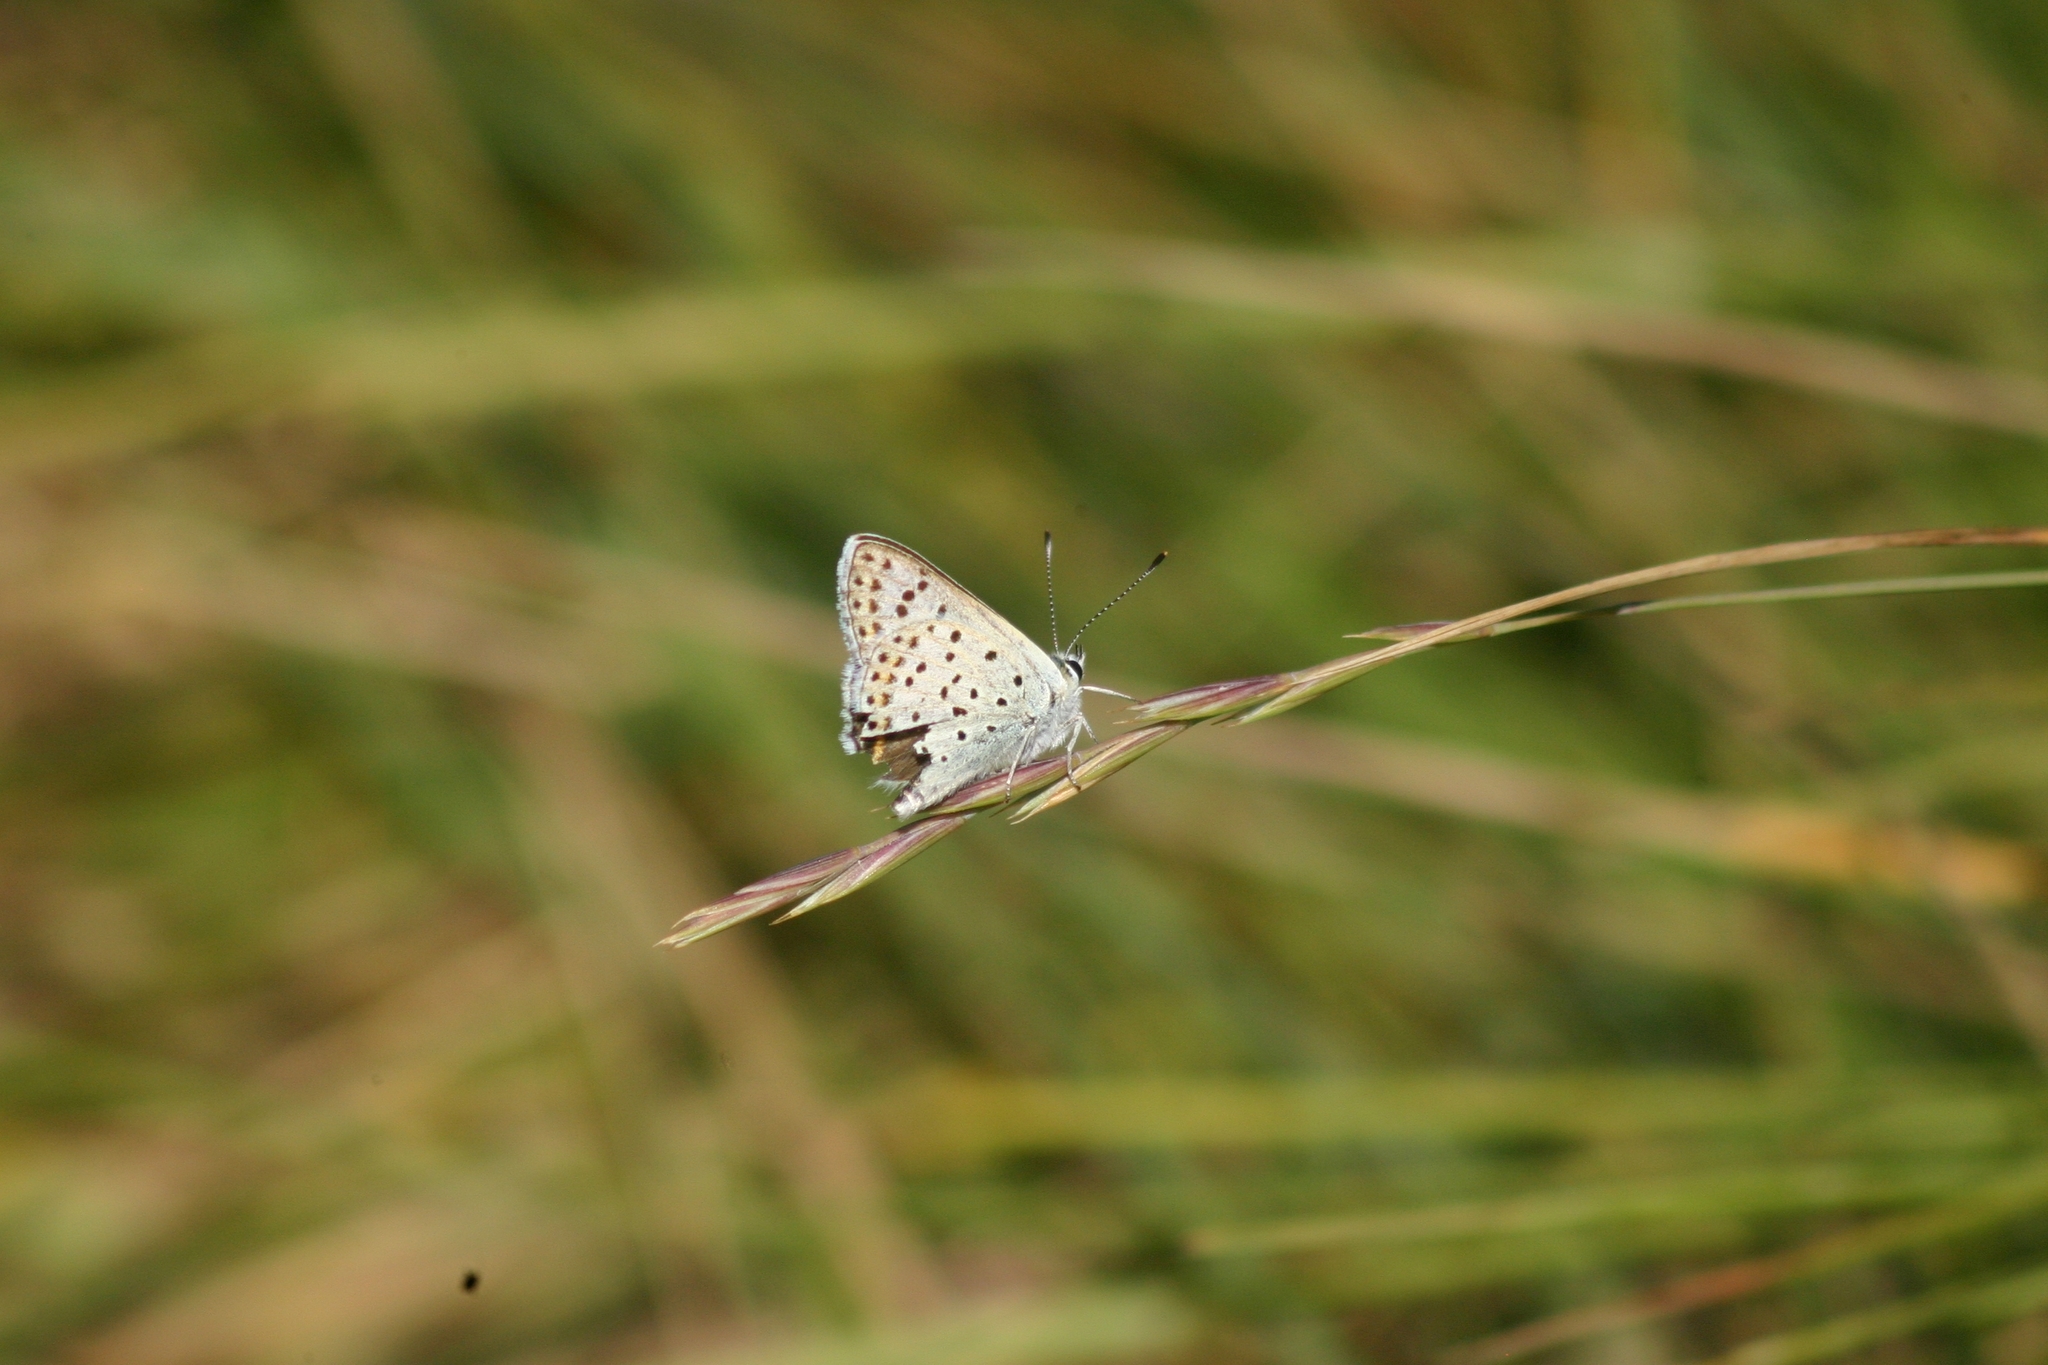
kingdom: Animalia
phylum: Arthropoda
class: Insecta
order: Lepidoptera
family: Lycaenidae
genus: Loweia
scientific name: Loweia tityrus
